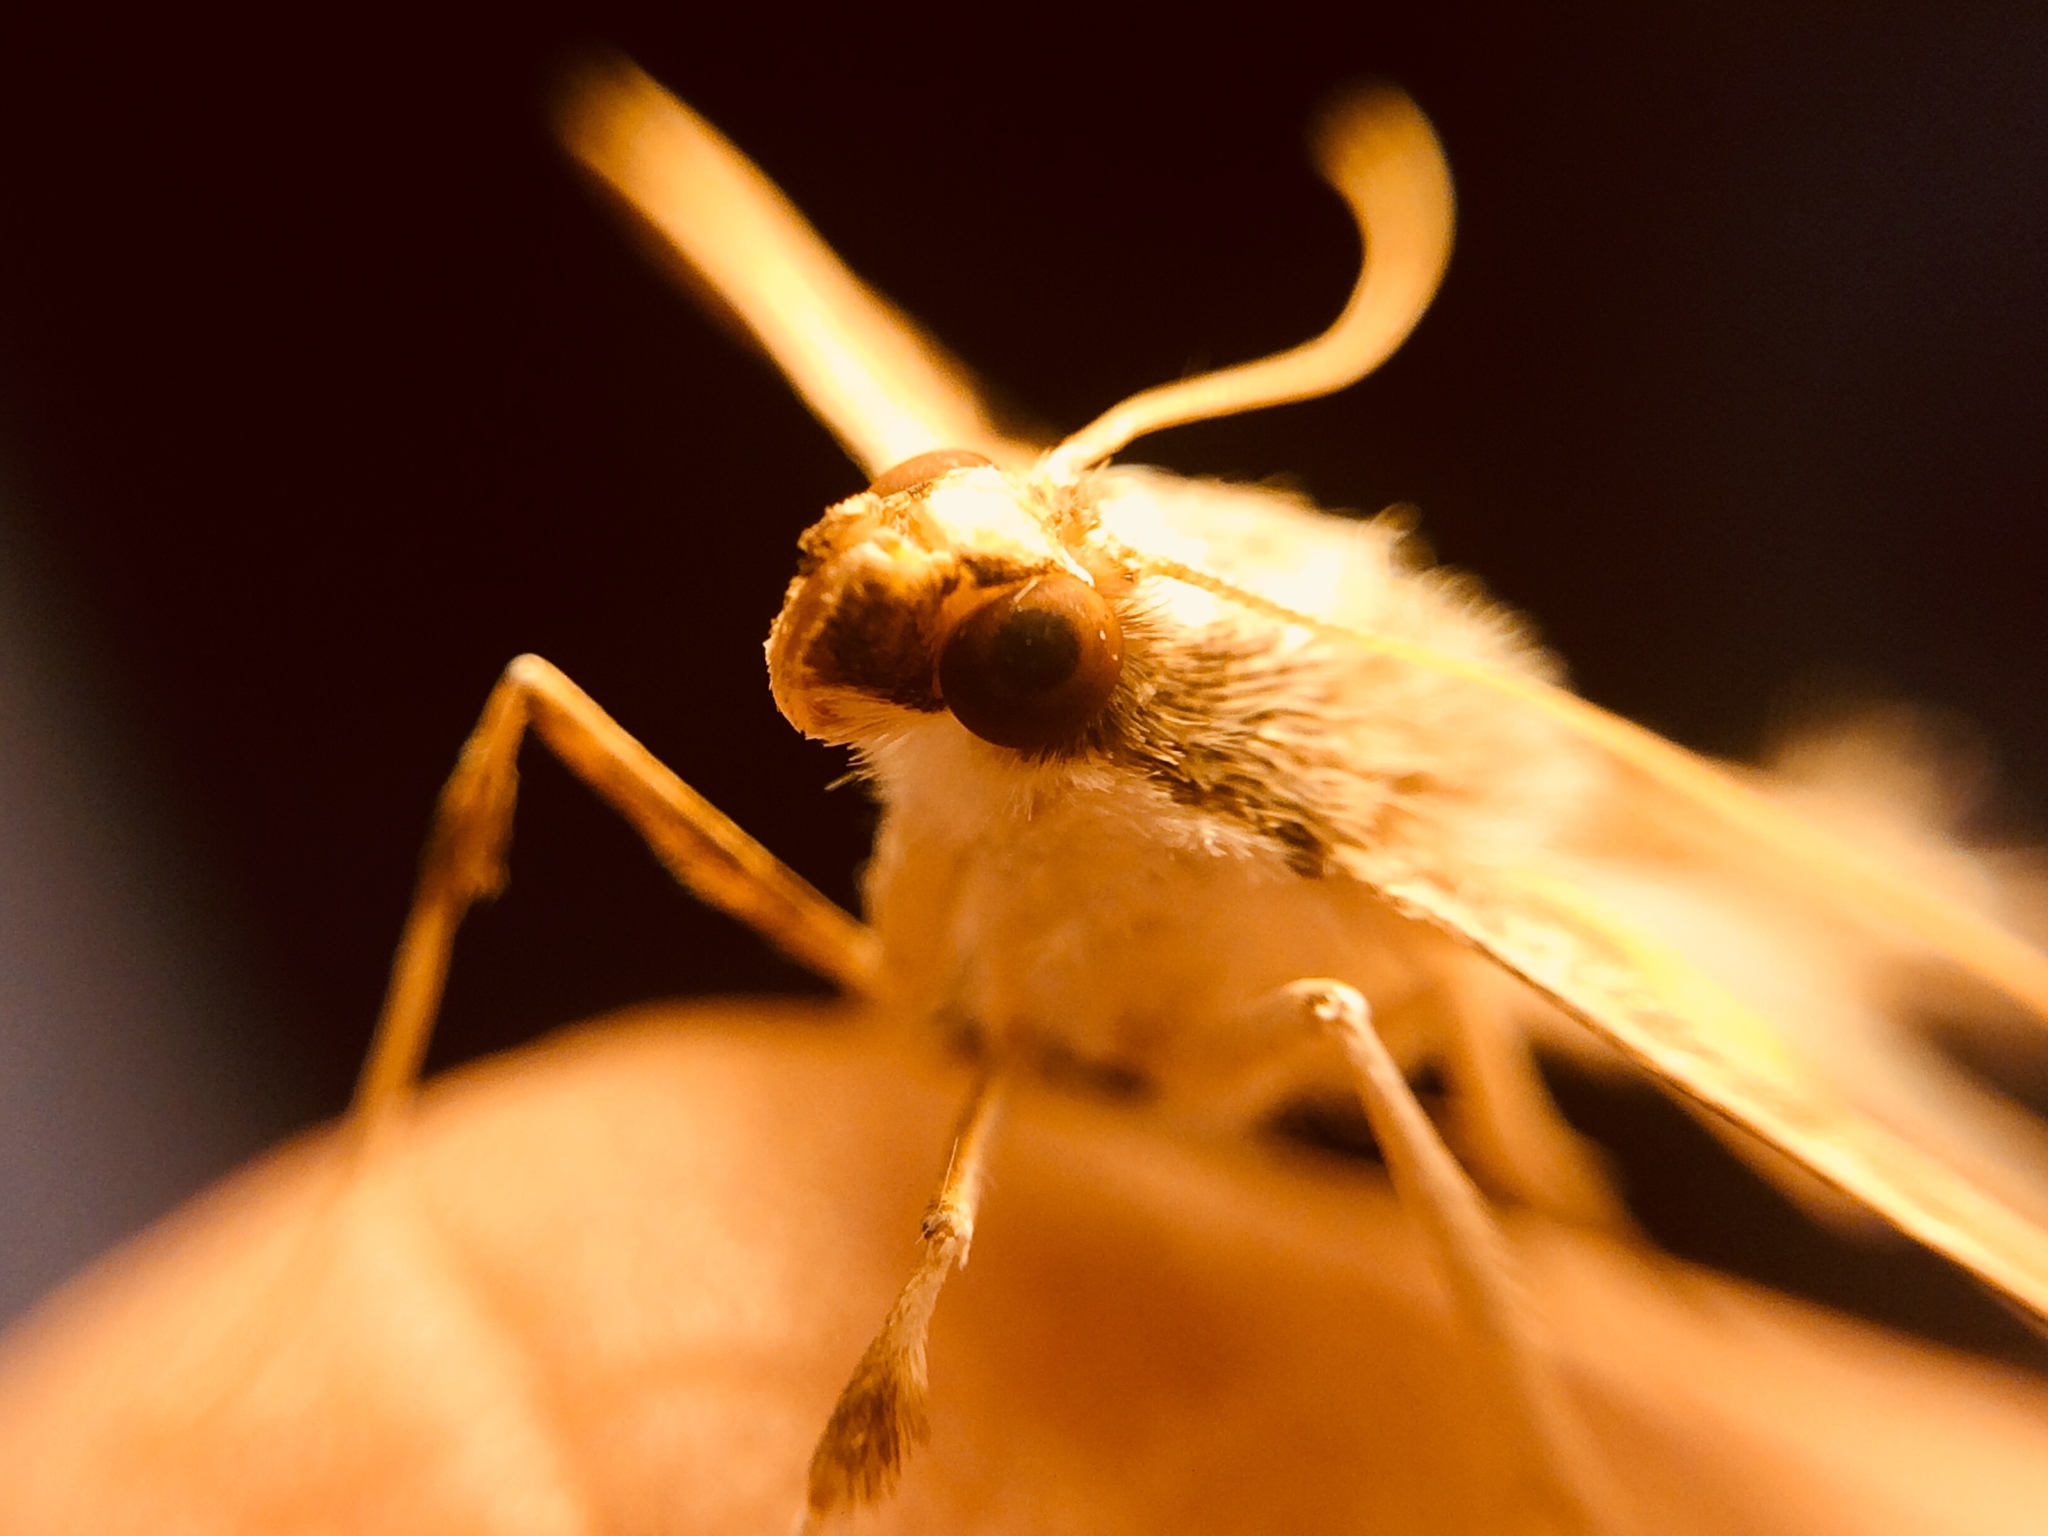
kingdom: Animalia
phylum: Arthropoda
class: Insecta
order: Lepidoptera
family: Crambidae
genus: Diaphania
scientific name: Diaphania
